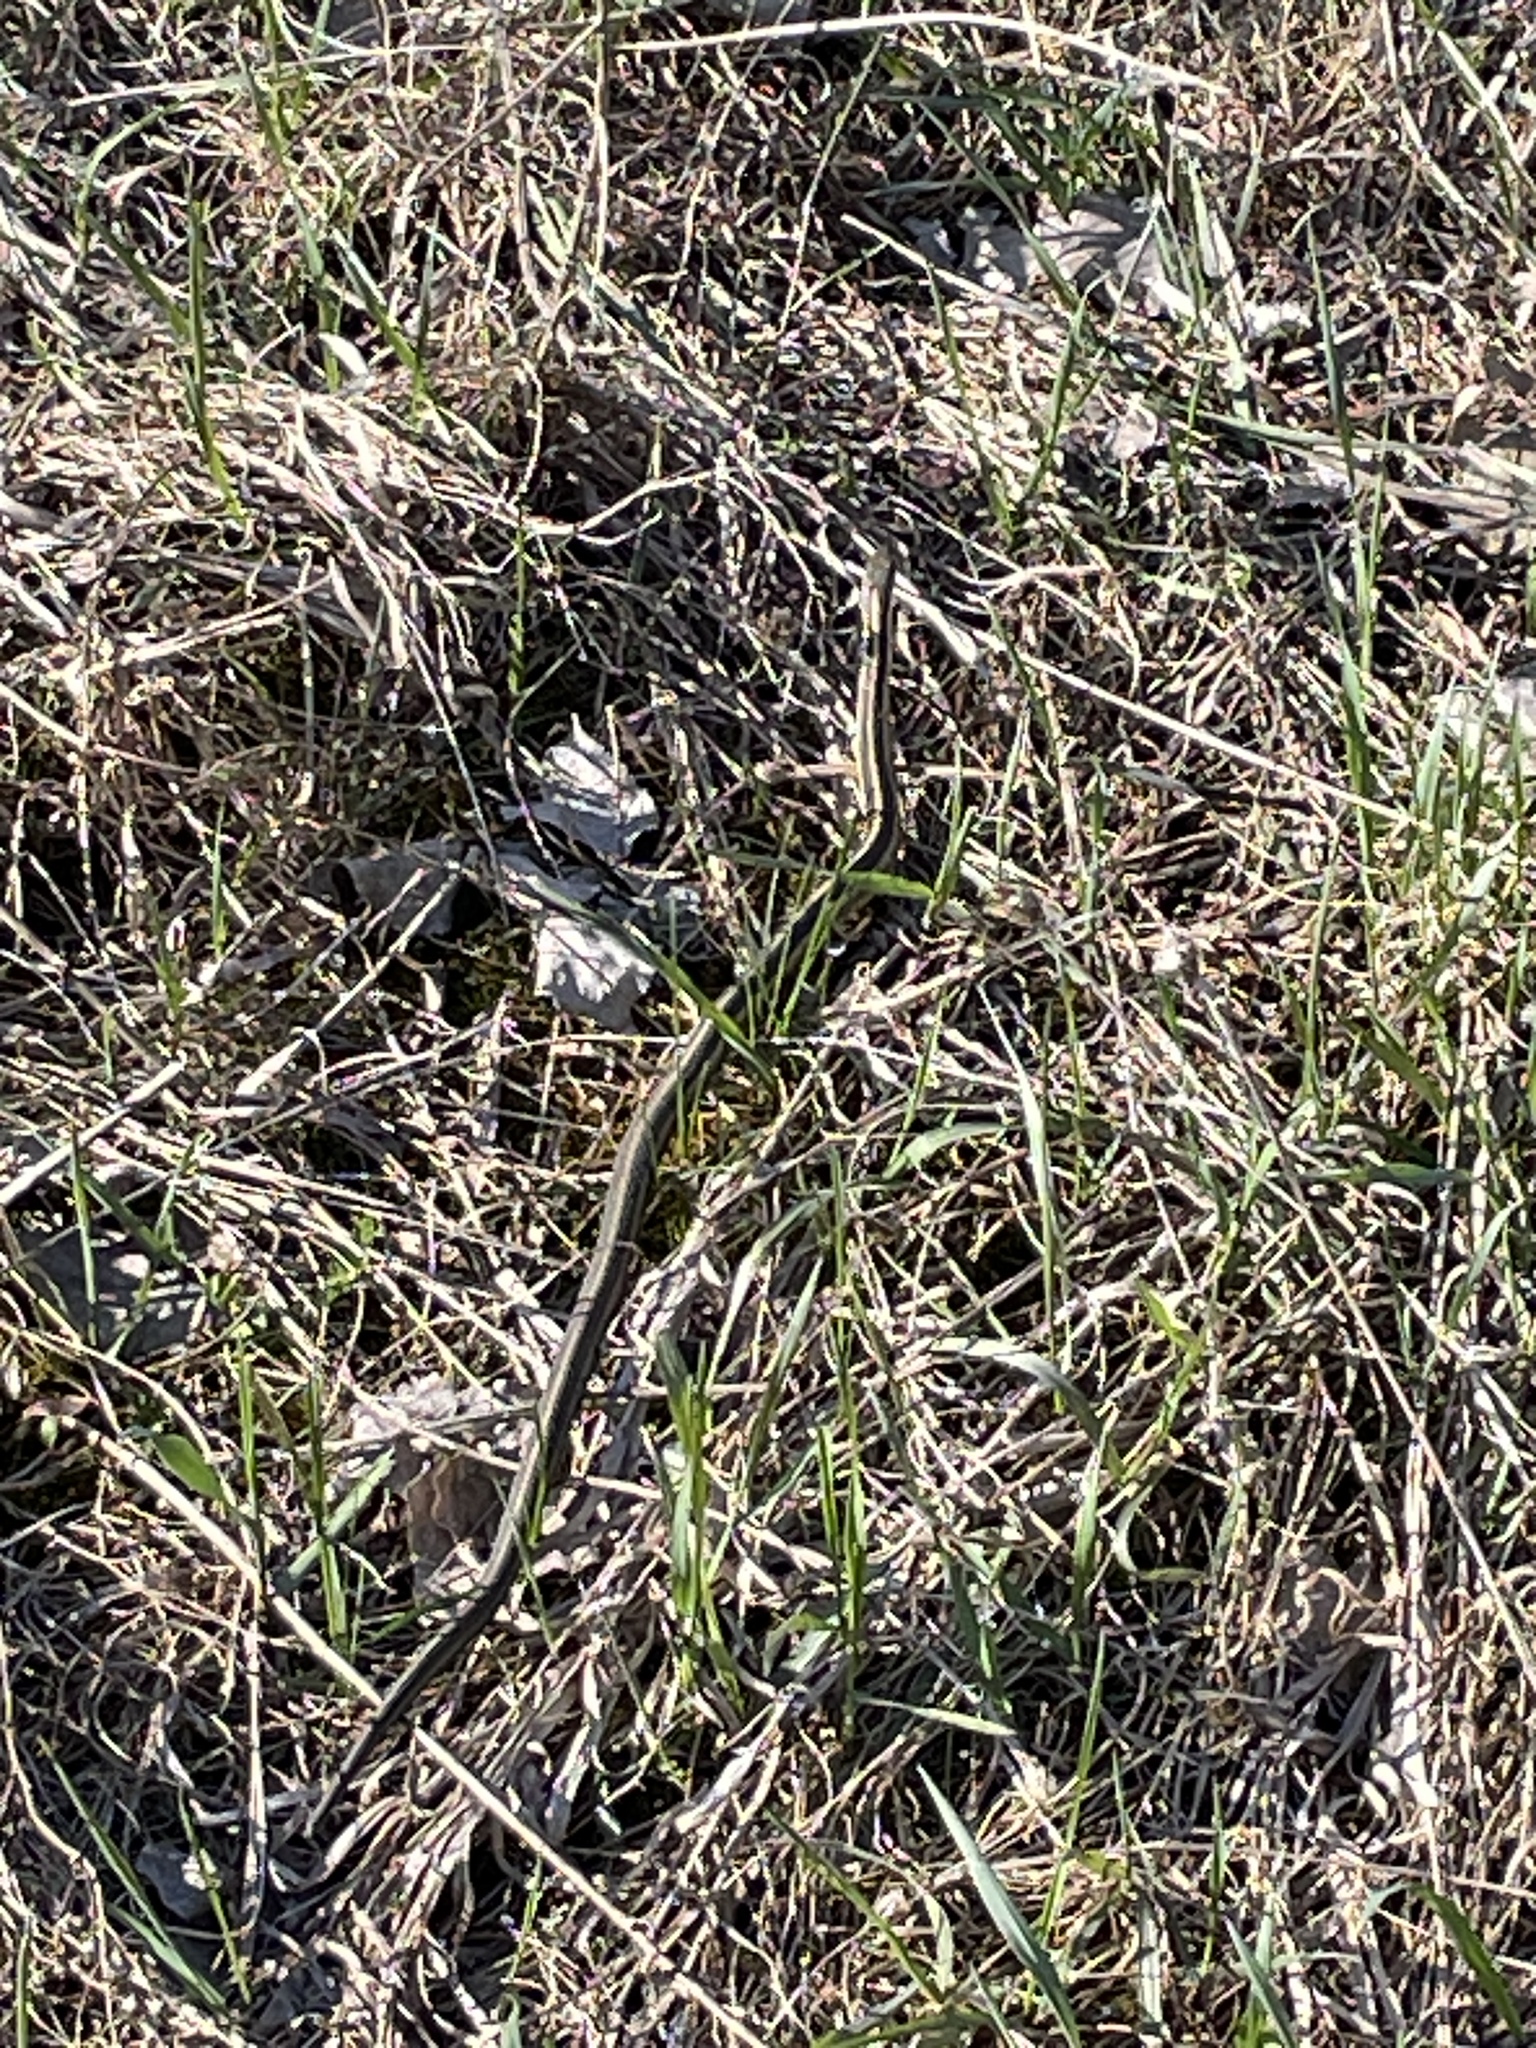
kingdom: Animalia
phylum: Chordata
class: Squamata
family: Colubridae
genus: Thamnophis
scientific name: Thamnophis sirtalis
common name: Common garter snake
